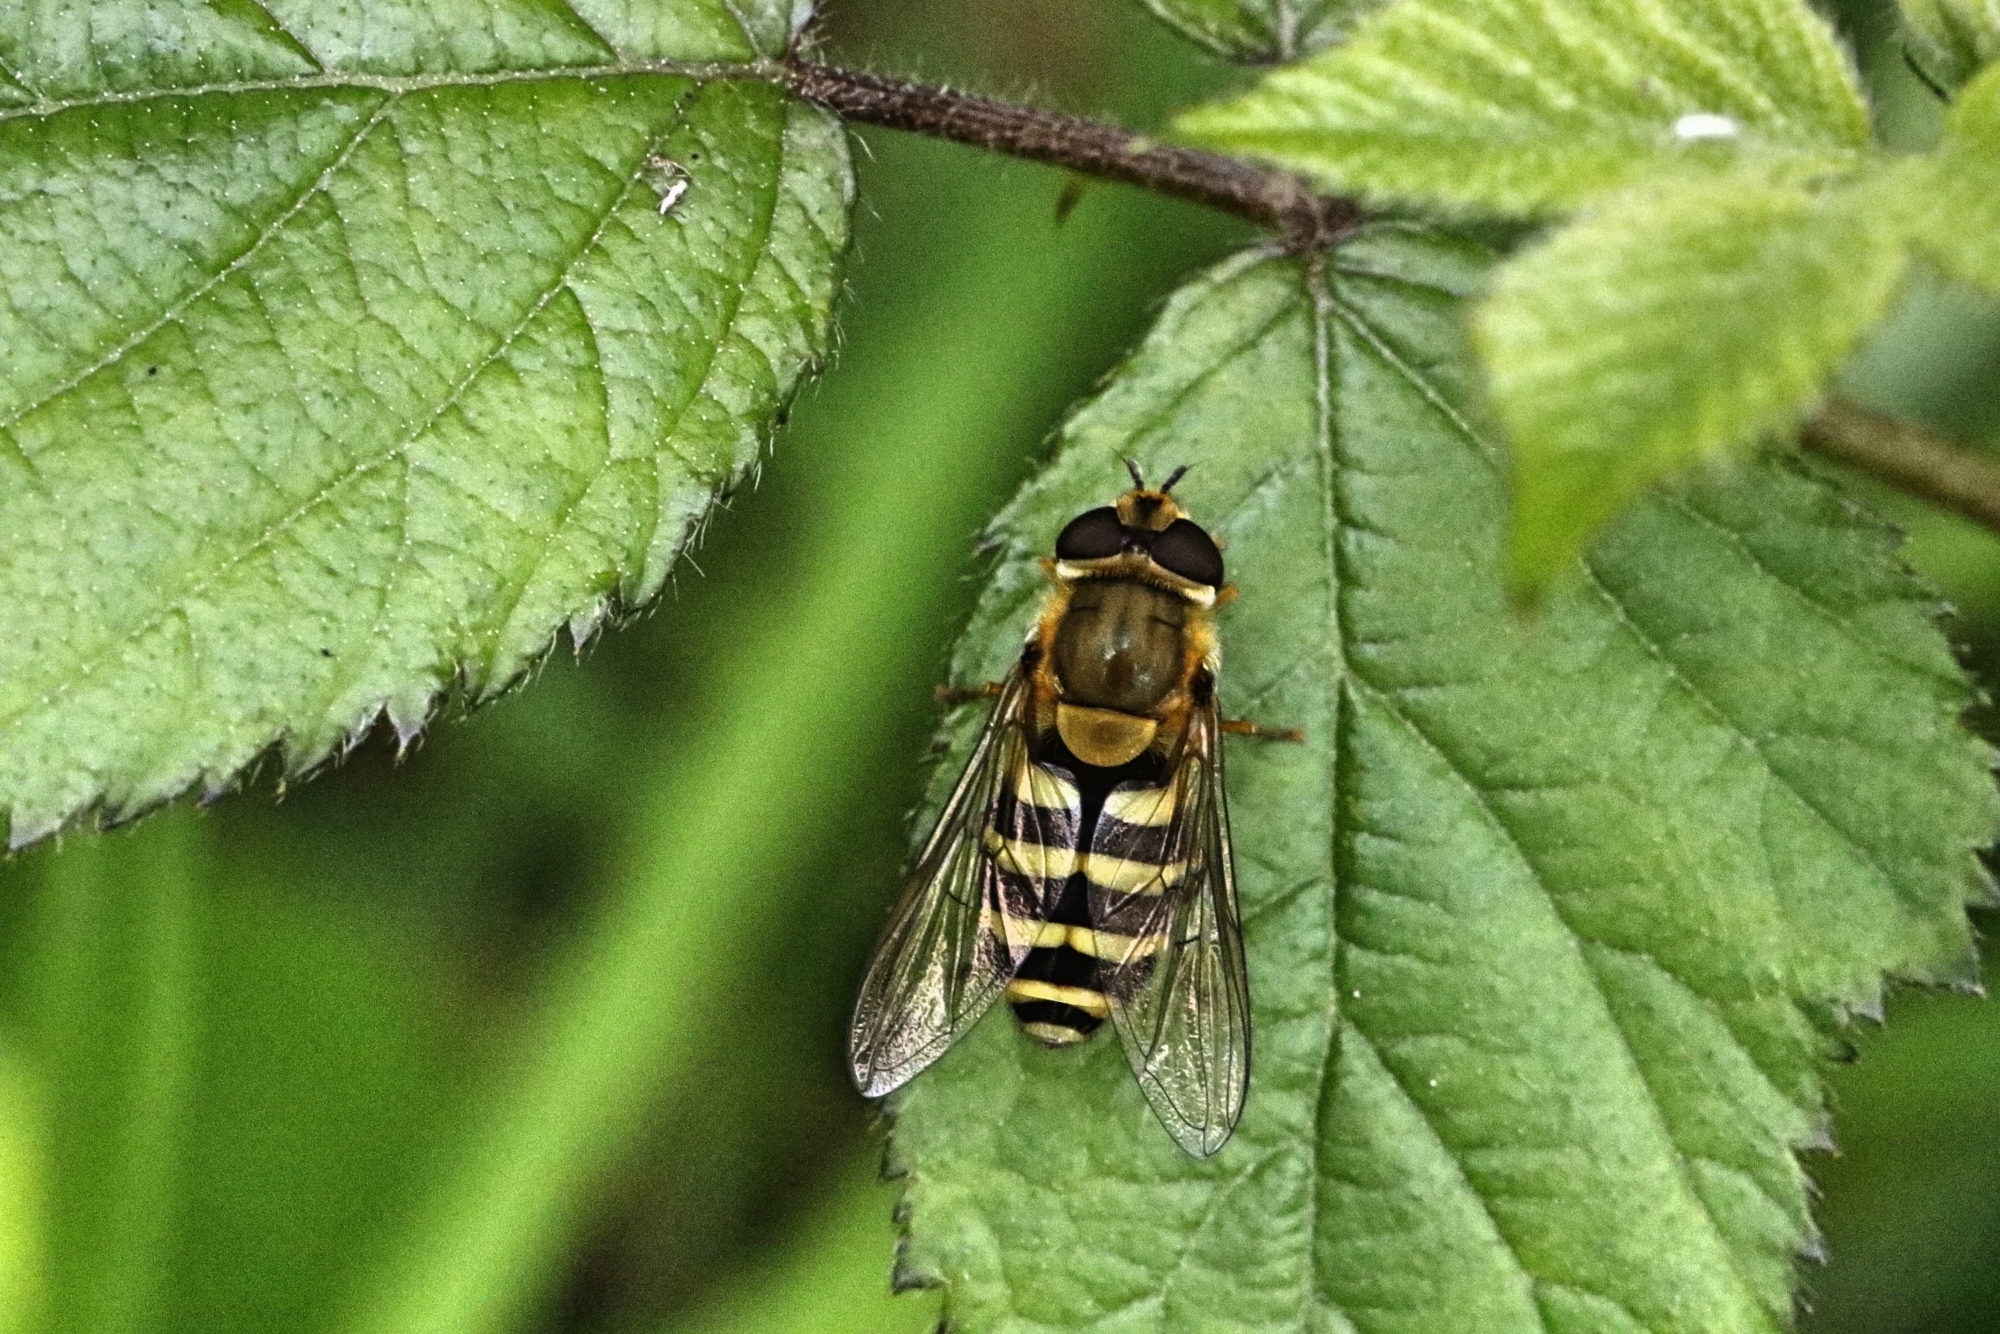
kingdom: Animalia
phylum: Arthropoda
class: Insecta
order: Diptera
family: Syrphidae
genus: Syrphus
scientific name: Syrphus
